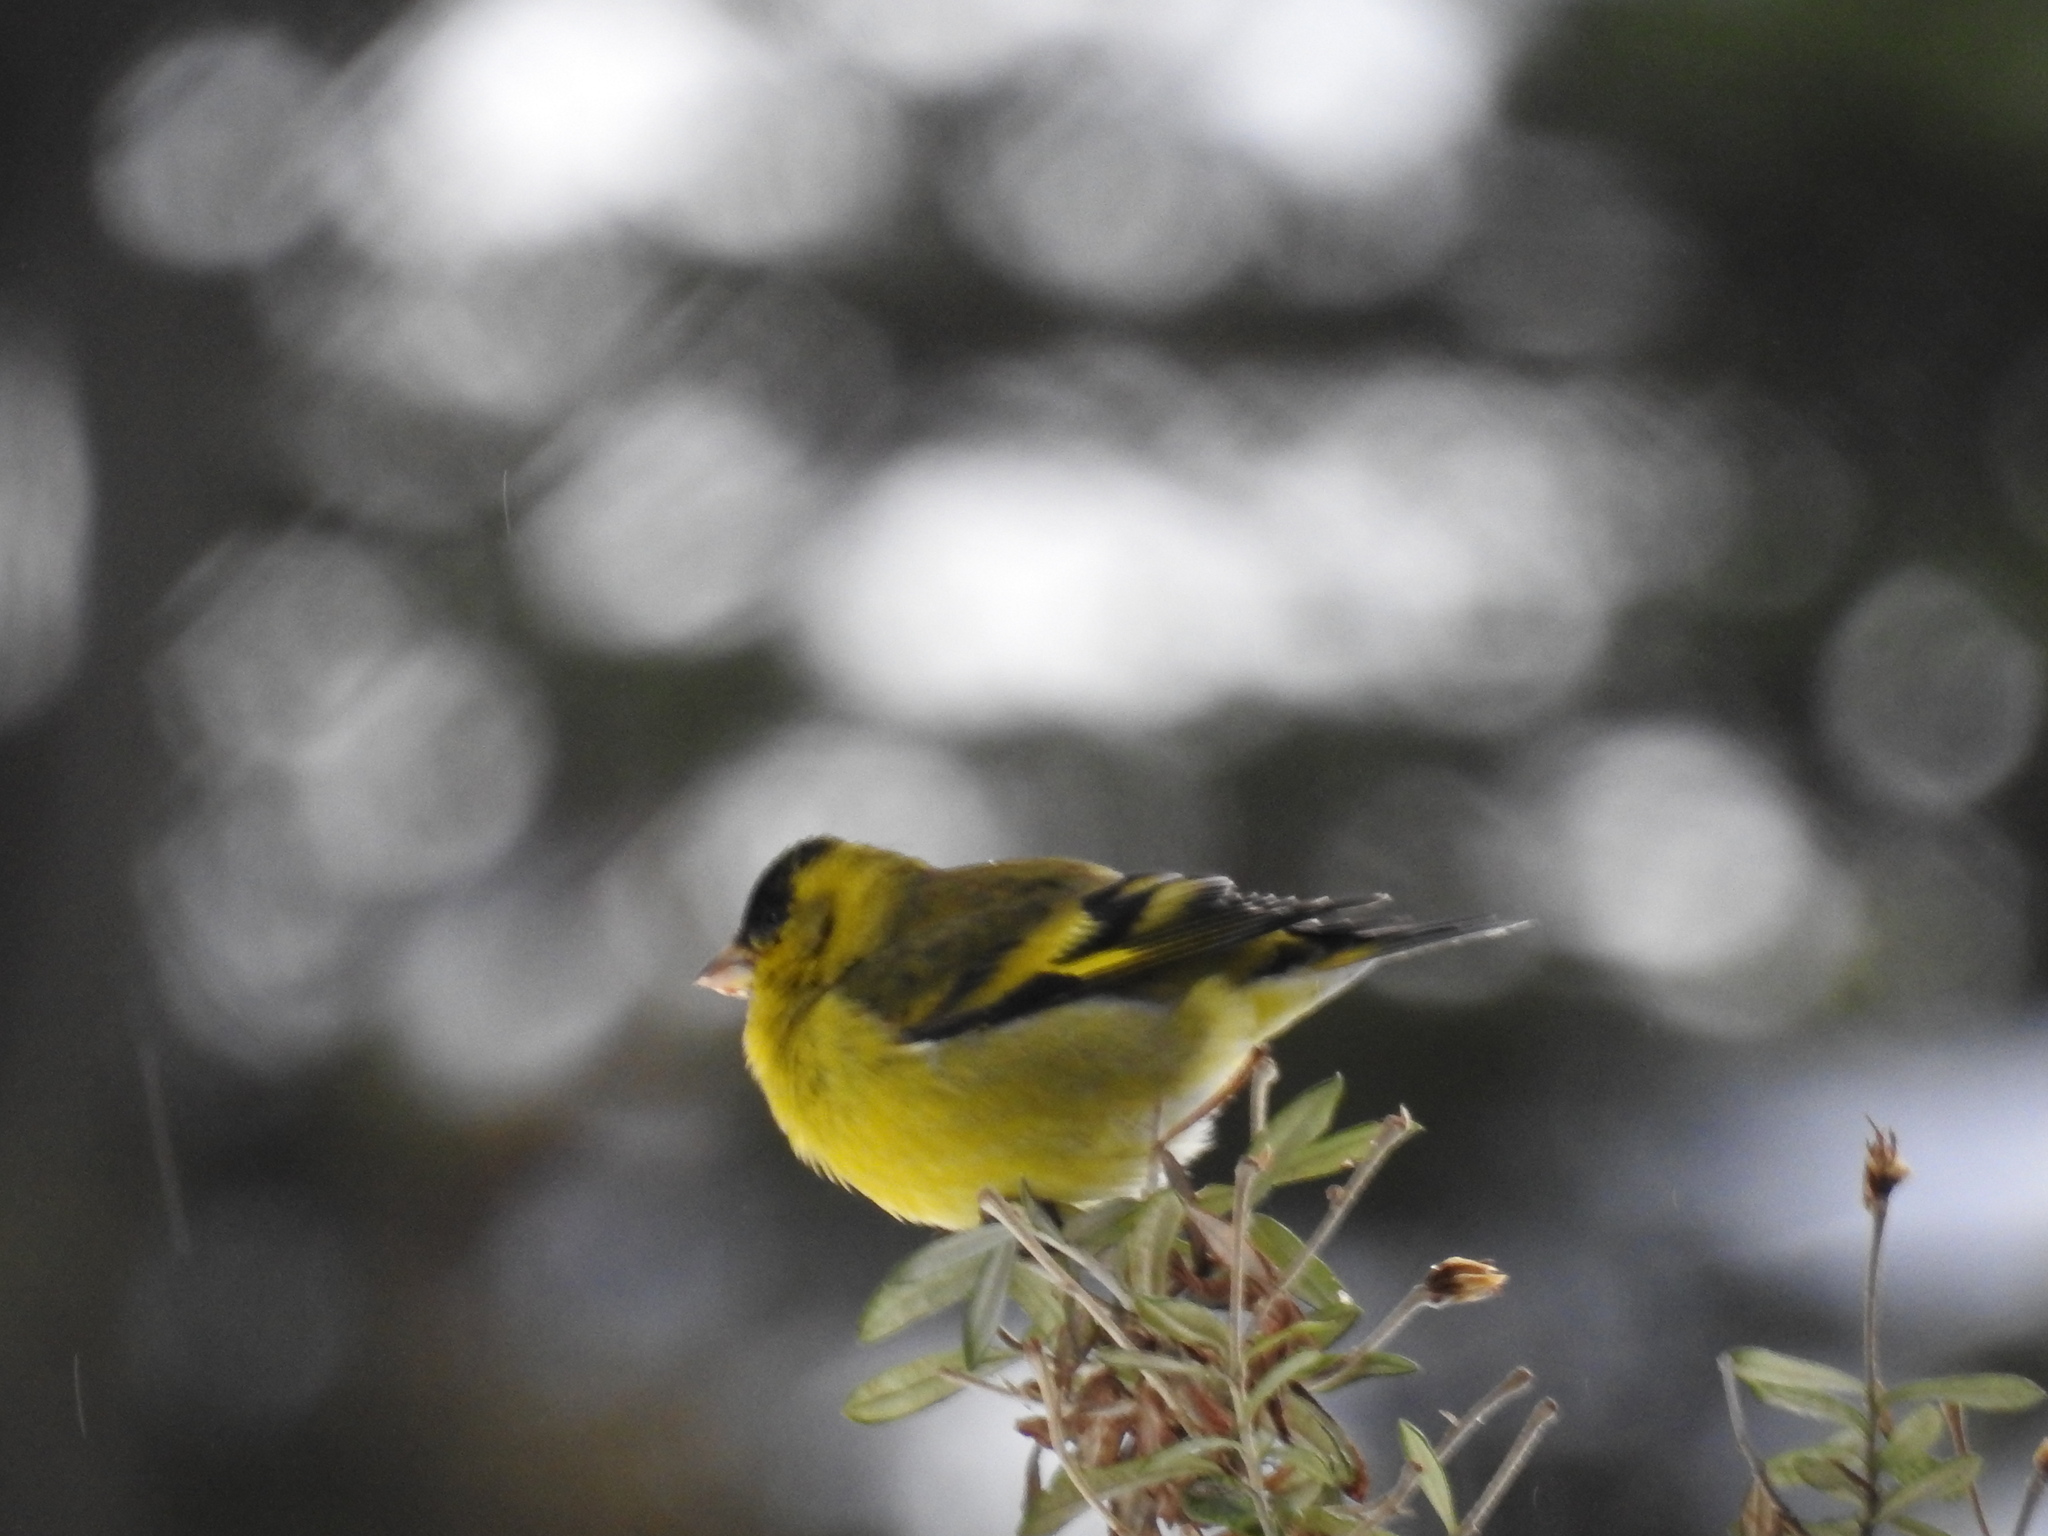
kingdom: Animalia
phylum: Chordata
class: Aves
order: Passeriformes
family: Fringillidae
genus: Spinus
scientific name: Spinus barbatus
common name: Black-chinned siskin
